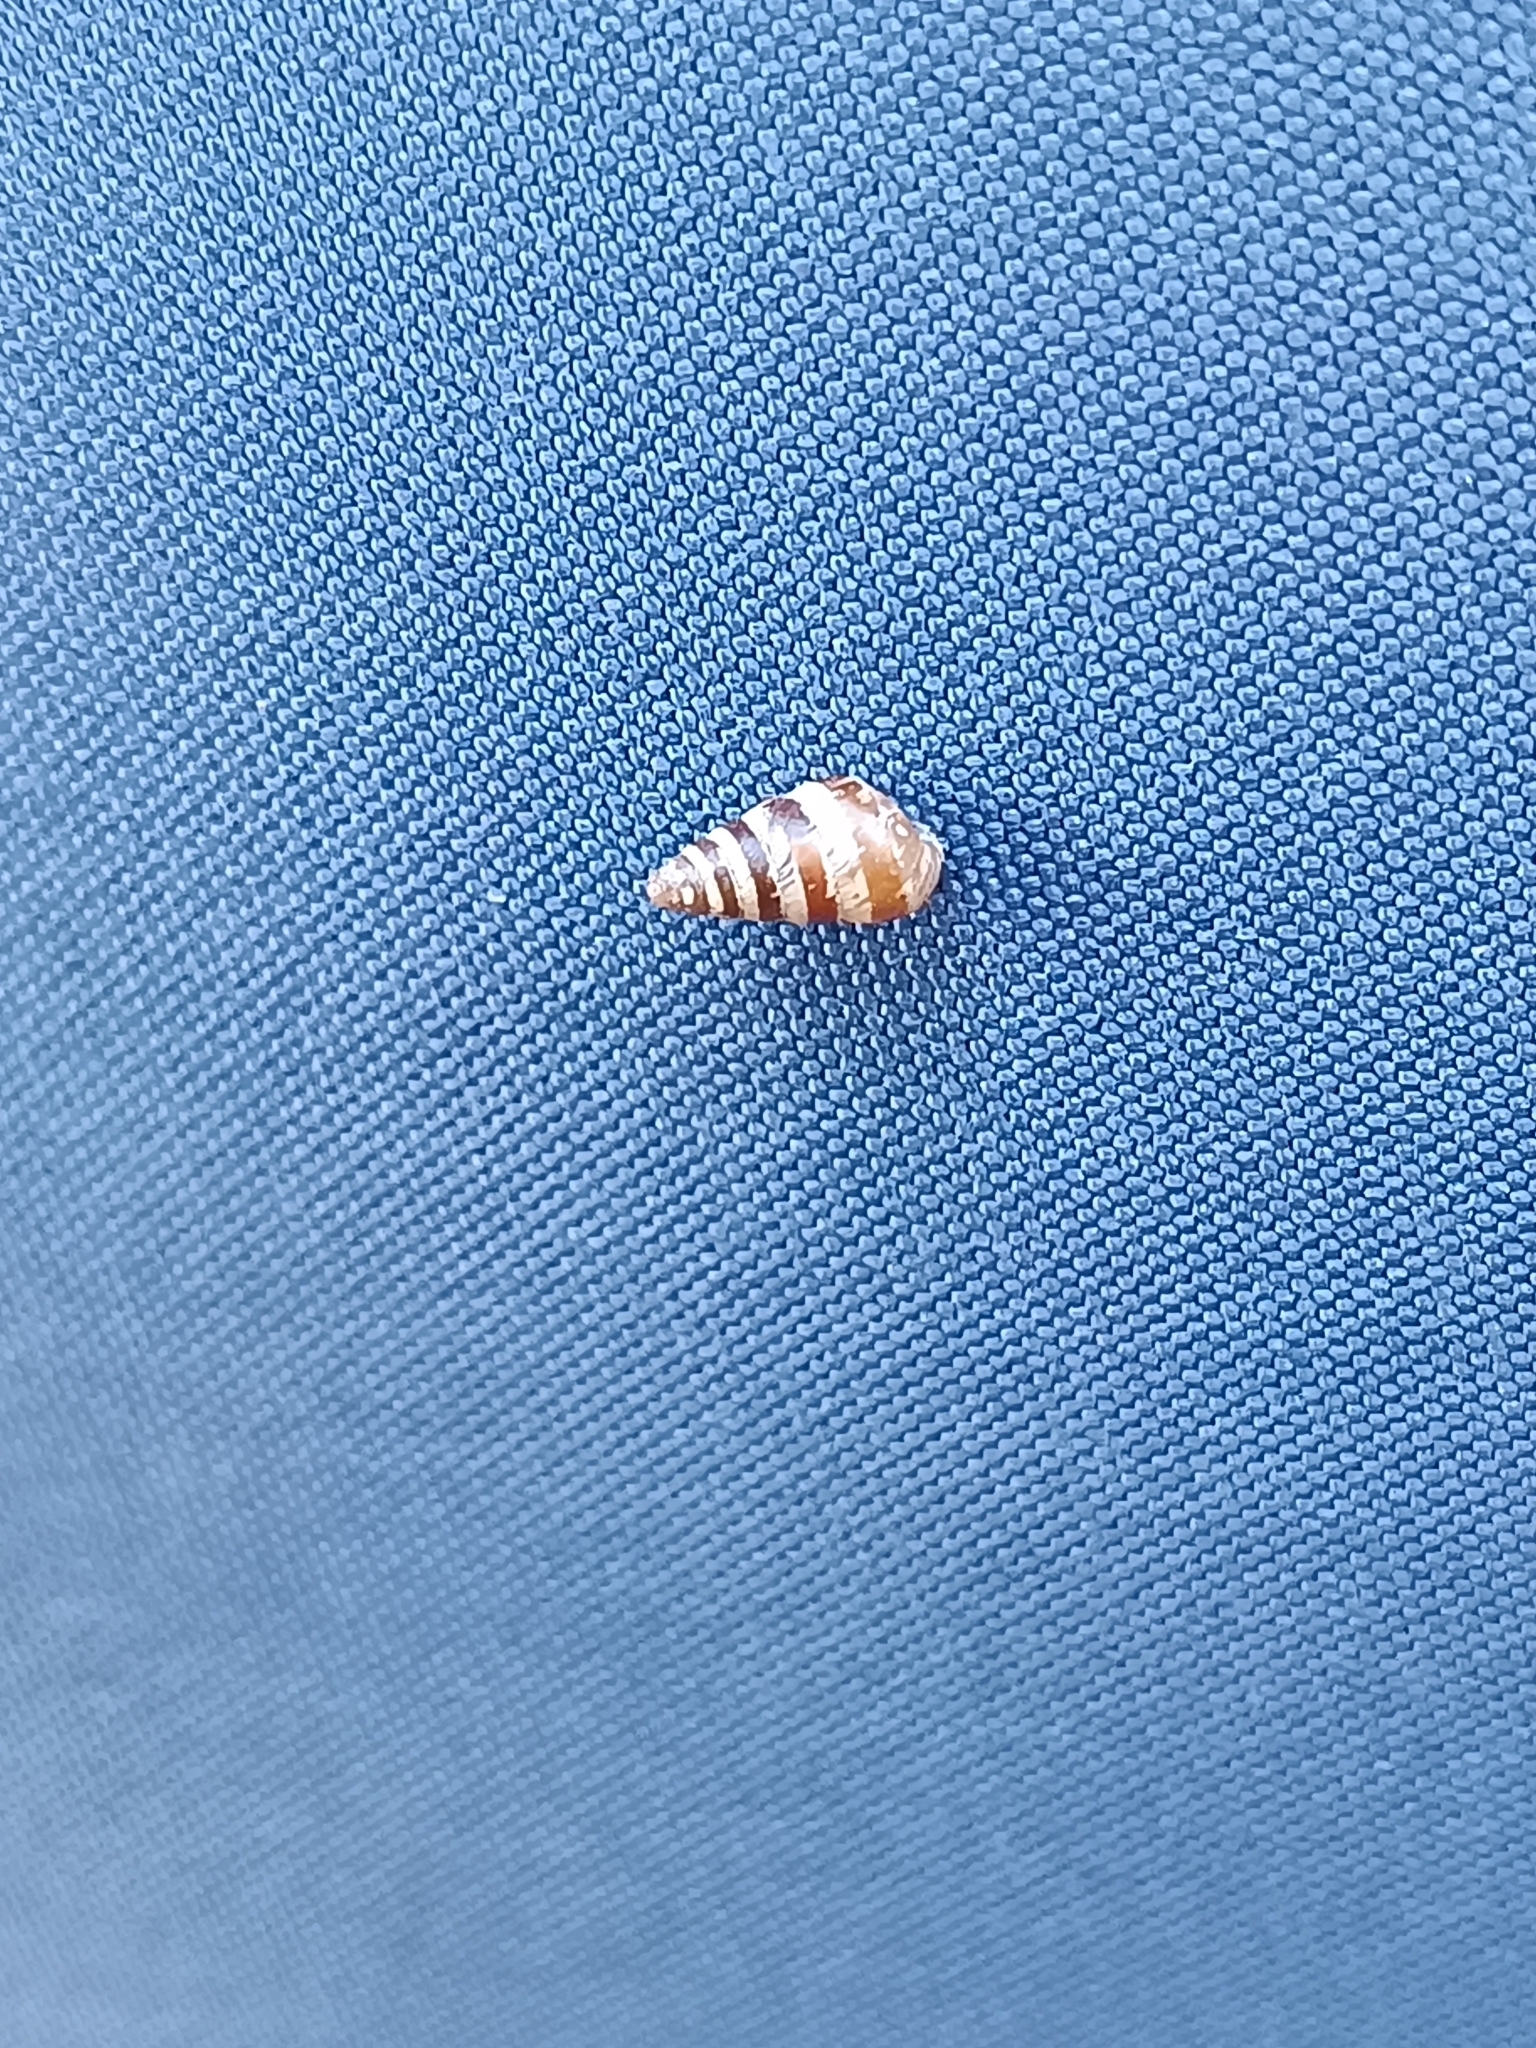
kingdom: Animalia
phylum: Mollusca
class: Gastropoda
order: Stylommatophora
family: Geomitridae
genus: Cochlicella
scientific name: Cochlicella barbara
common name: Potbellied helicellid
